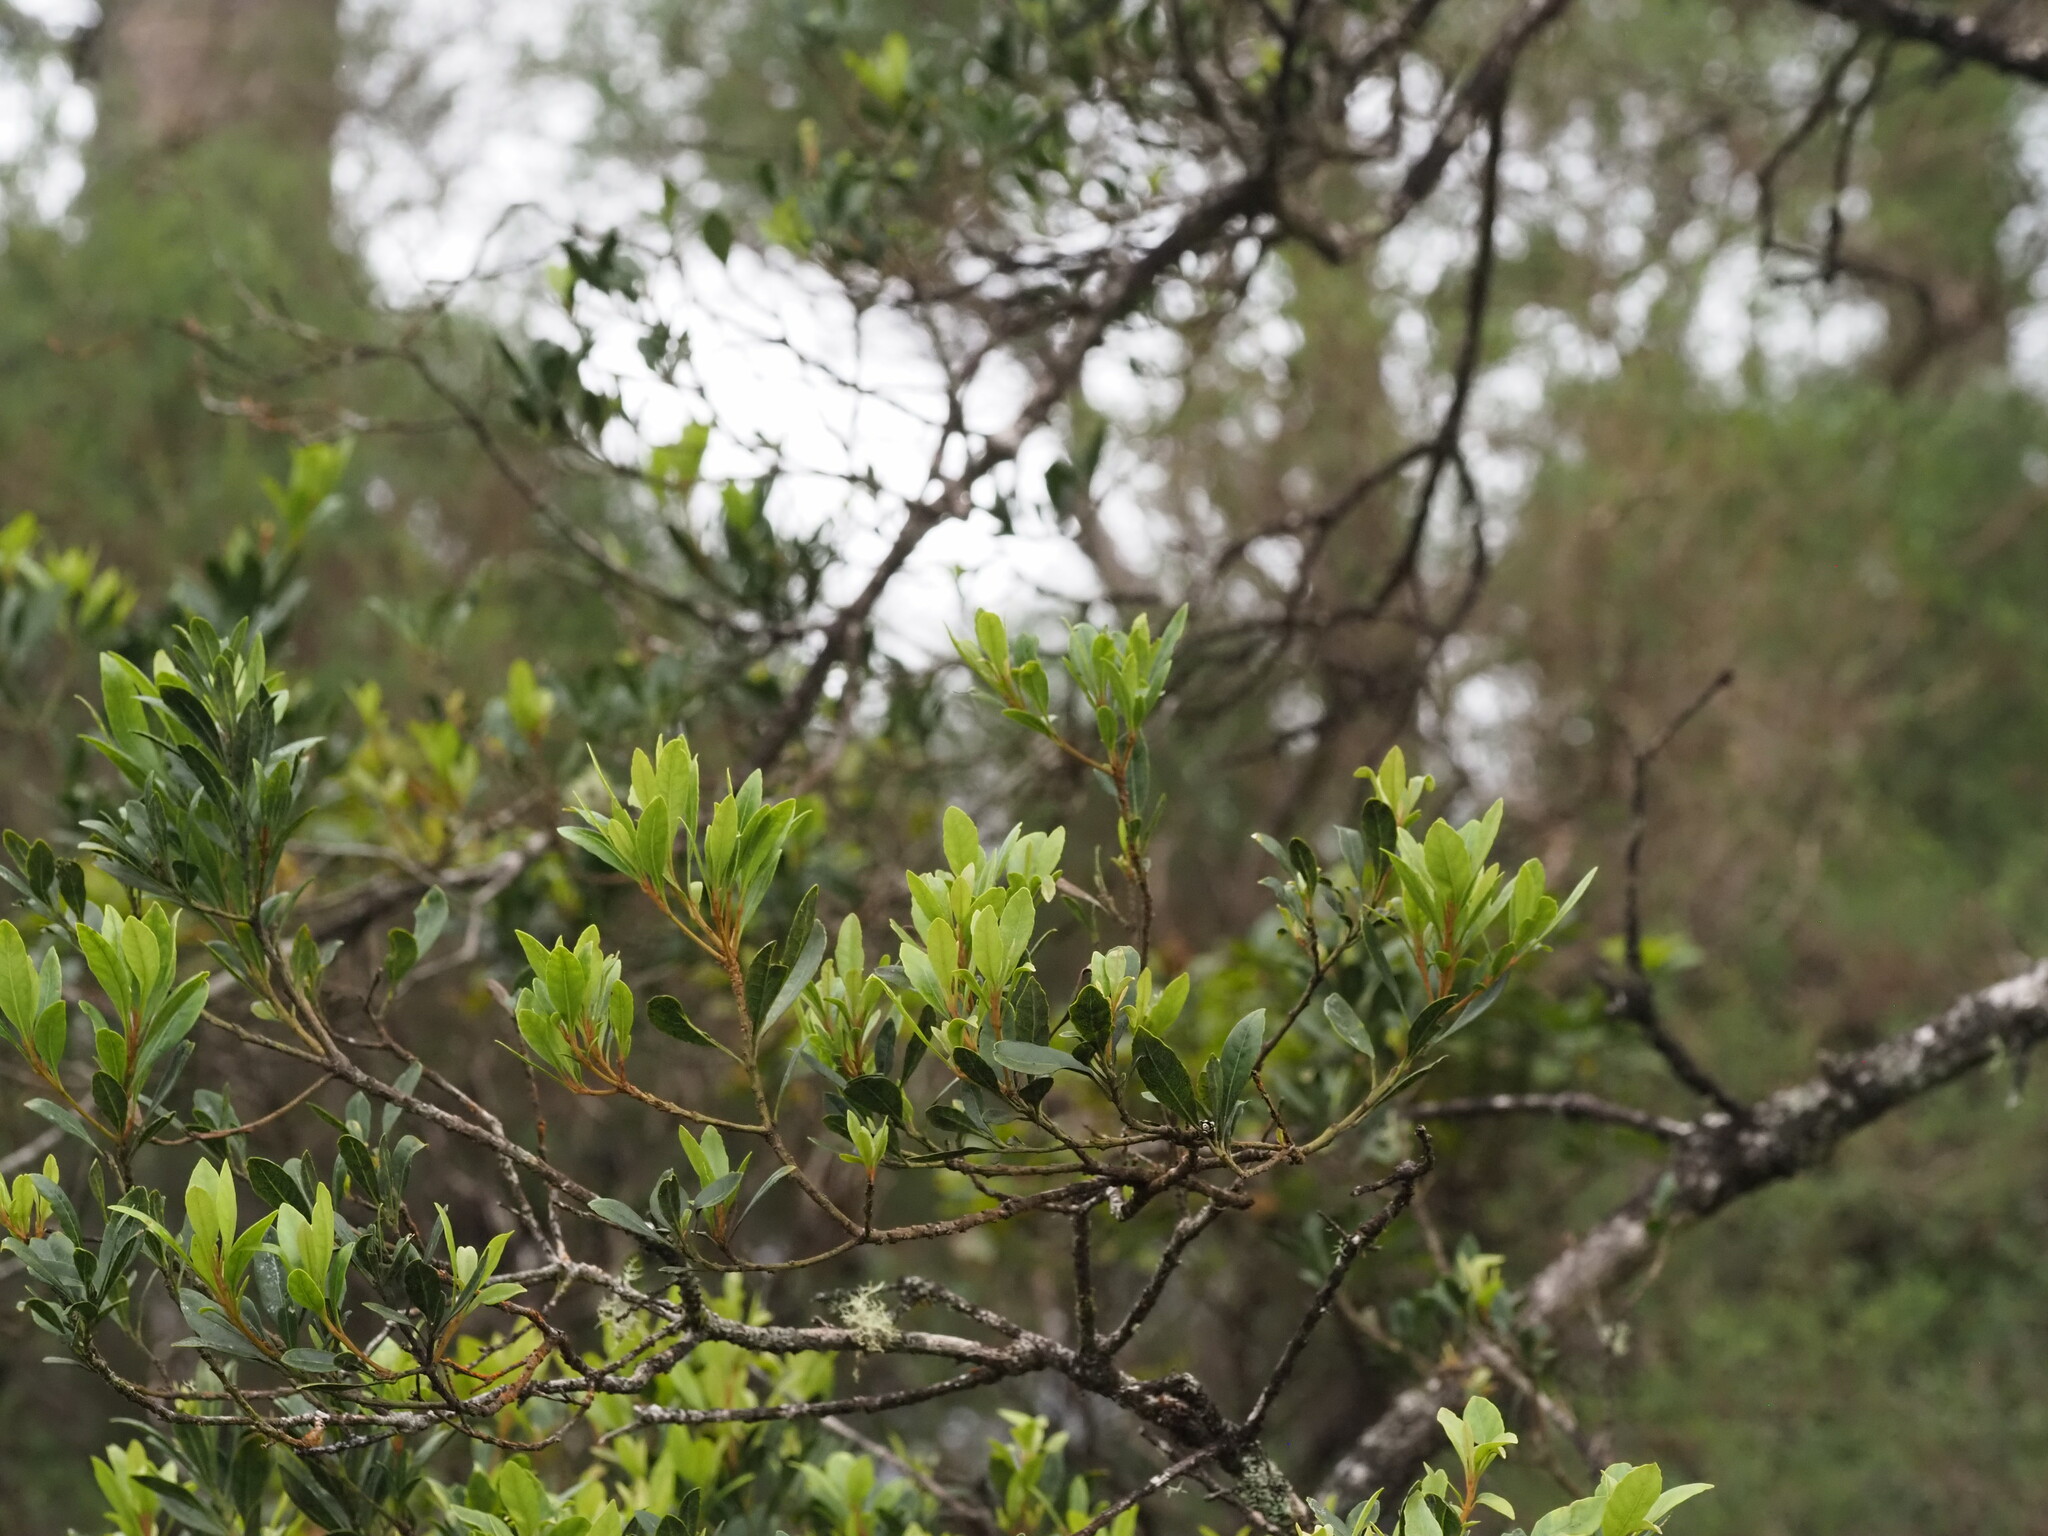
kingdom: Plantae
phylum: Tracheophyta
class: Magnoliopsida
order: Fagales
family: Myricaceae
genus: Morella
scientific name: Morella faya
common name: Firetree
